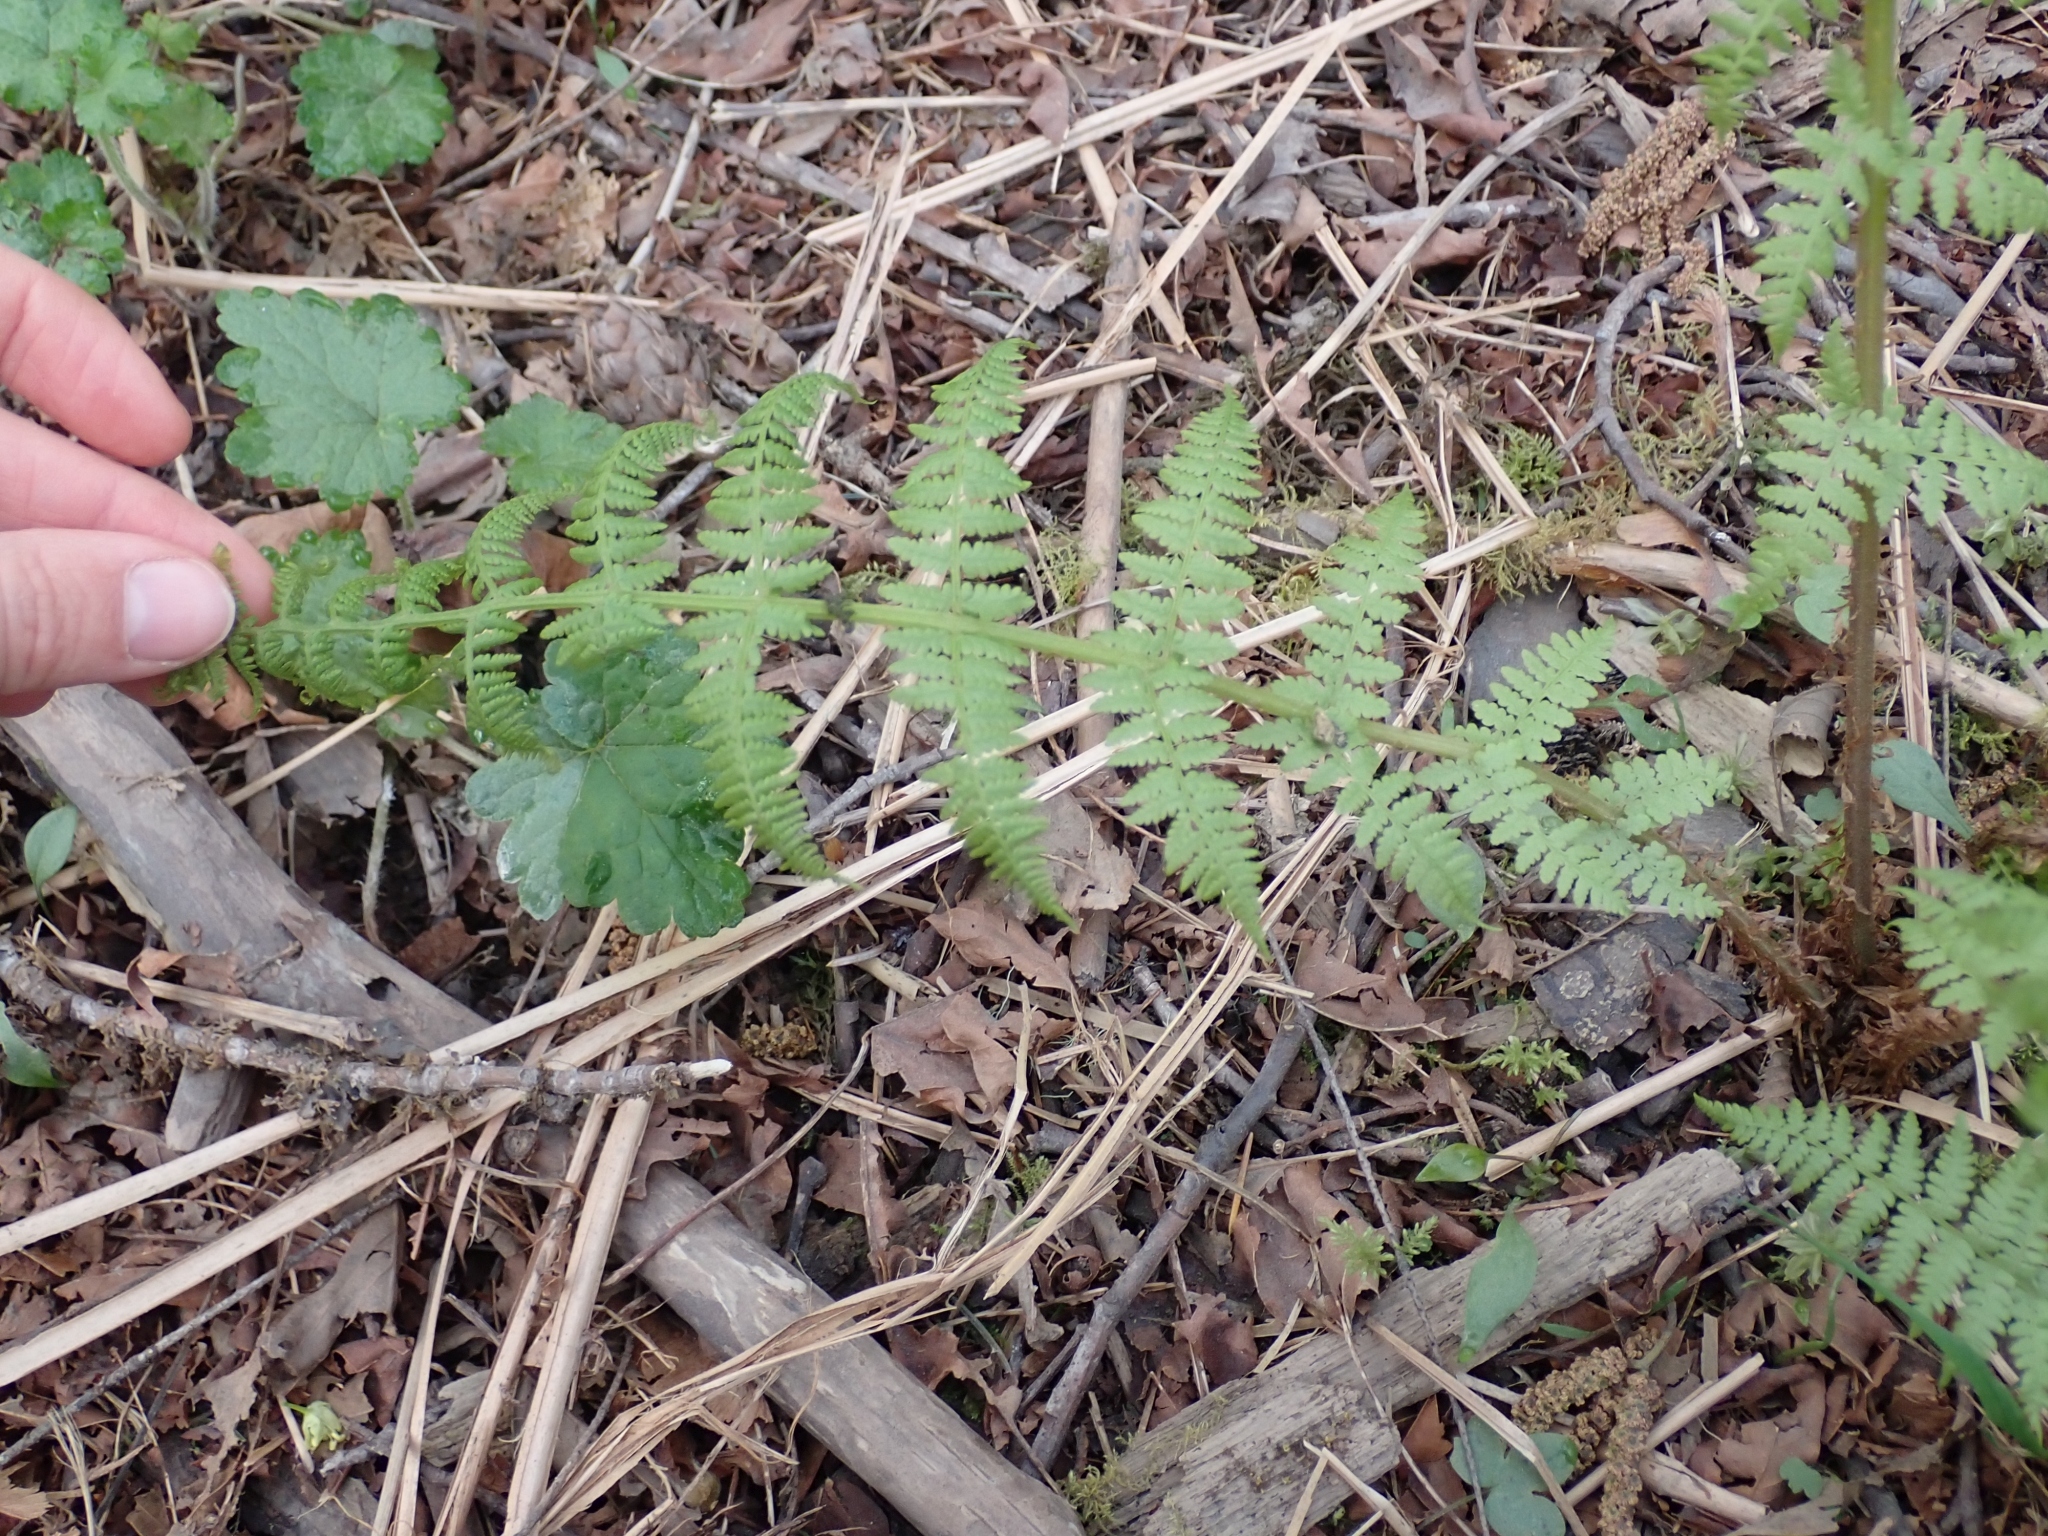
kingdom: Plantae
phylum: Tracheophyta
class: Polypodiopsida
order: Polypodiales
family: Athyriaceae
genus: Athyrium
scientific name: Athyrium filix-femina
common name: Lady fern
